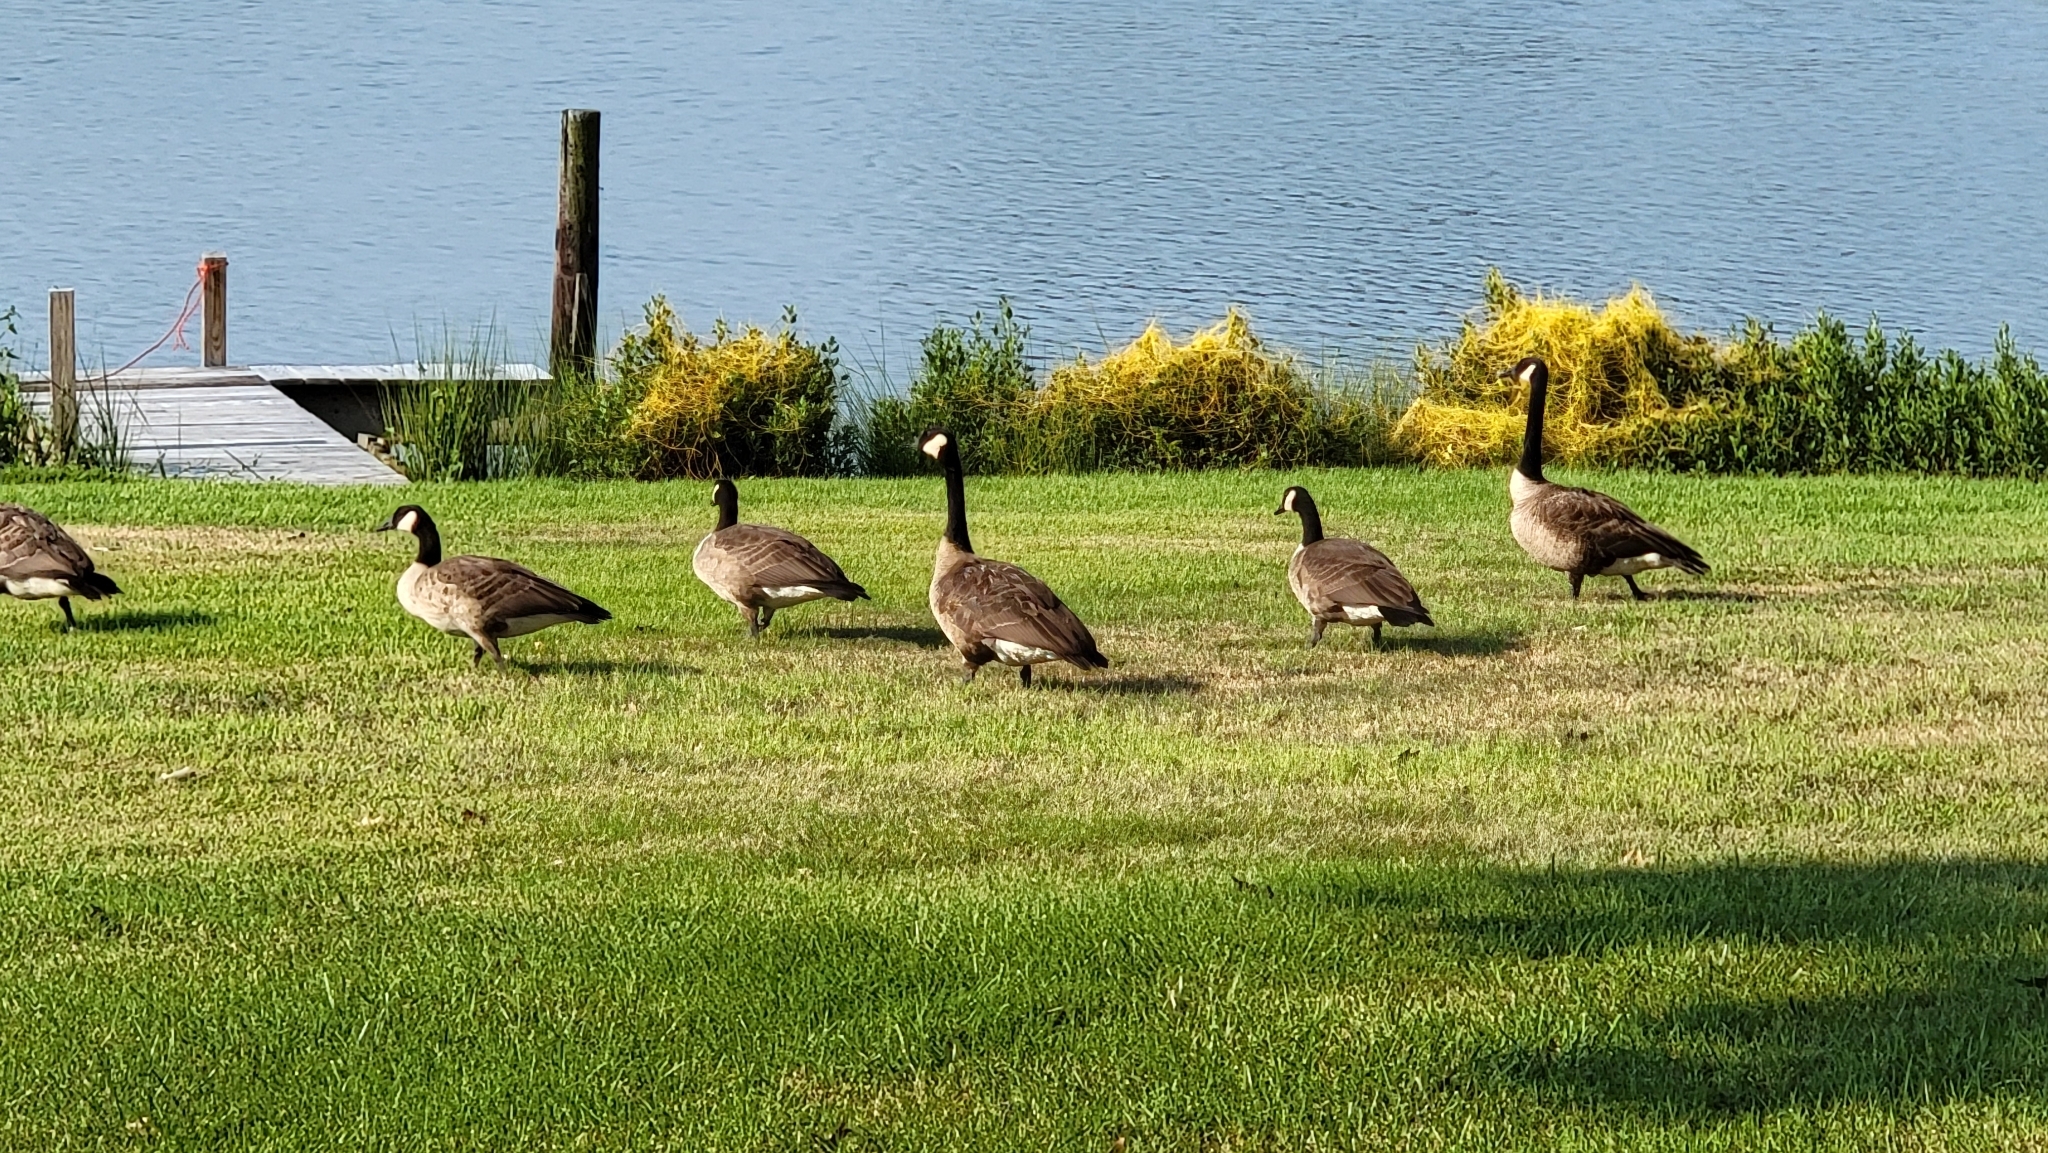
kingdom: Animalia
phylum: Chordata
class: Aves
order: Anseriformes
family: Anatidae
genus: Branta
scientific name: Branta canadensis
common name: Canada goose
